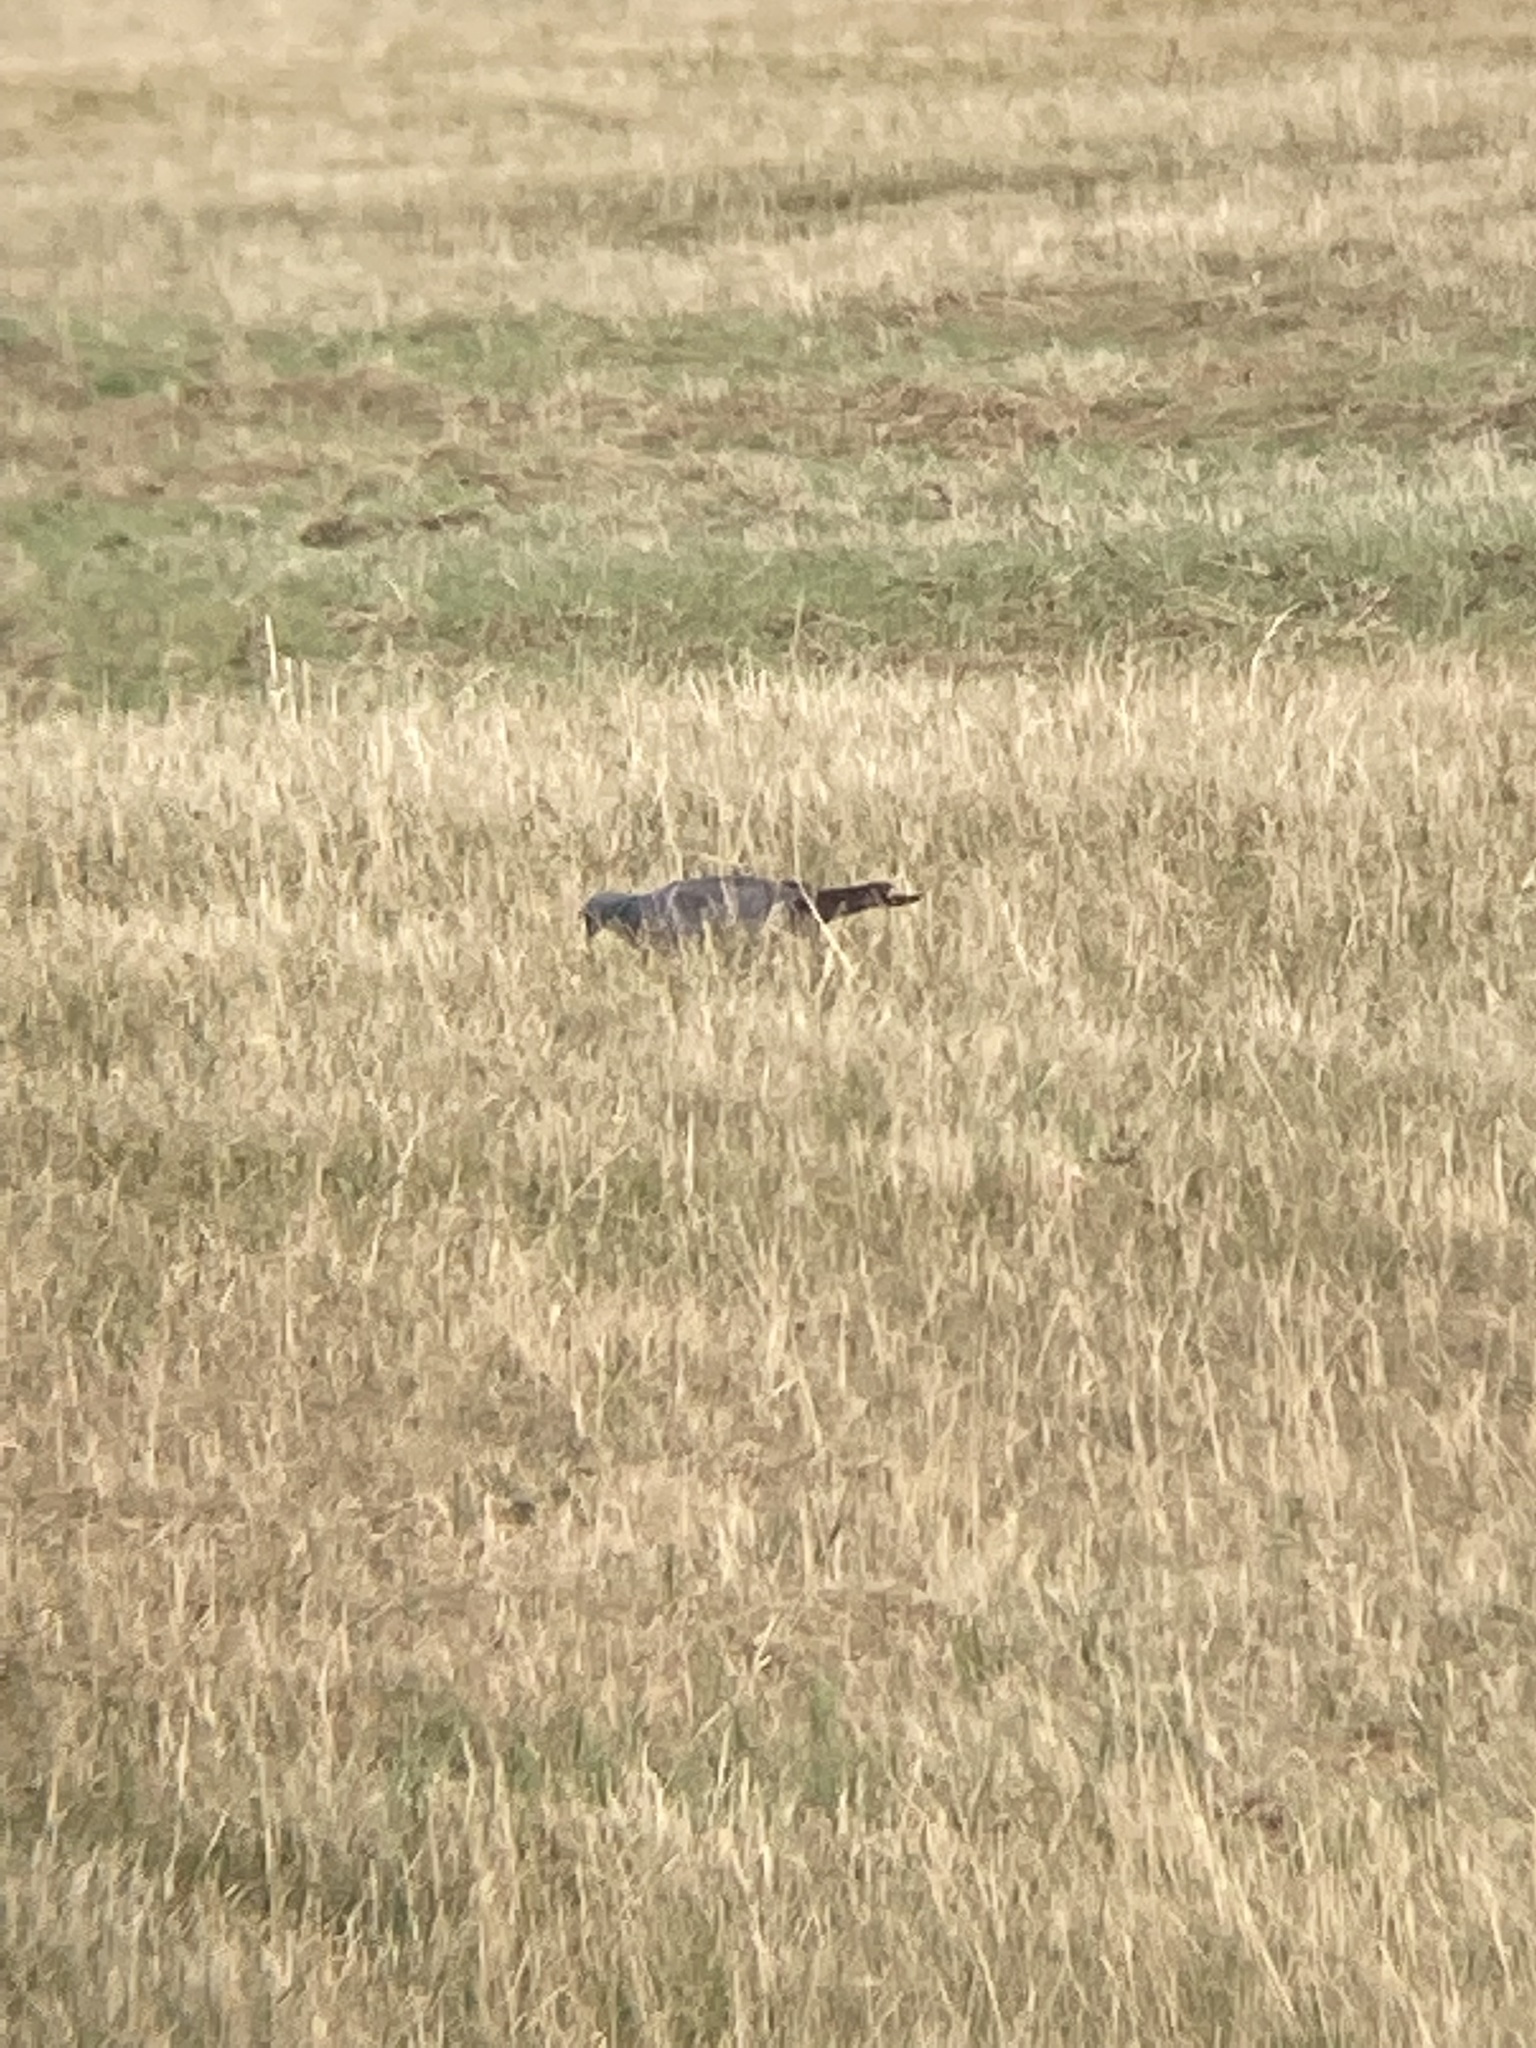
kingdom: Animalia
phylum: Chordata
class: Aves
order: Columbiformes
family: Columbidae
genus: Columba
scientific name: Columba oenas
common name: Stock dove
